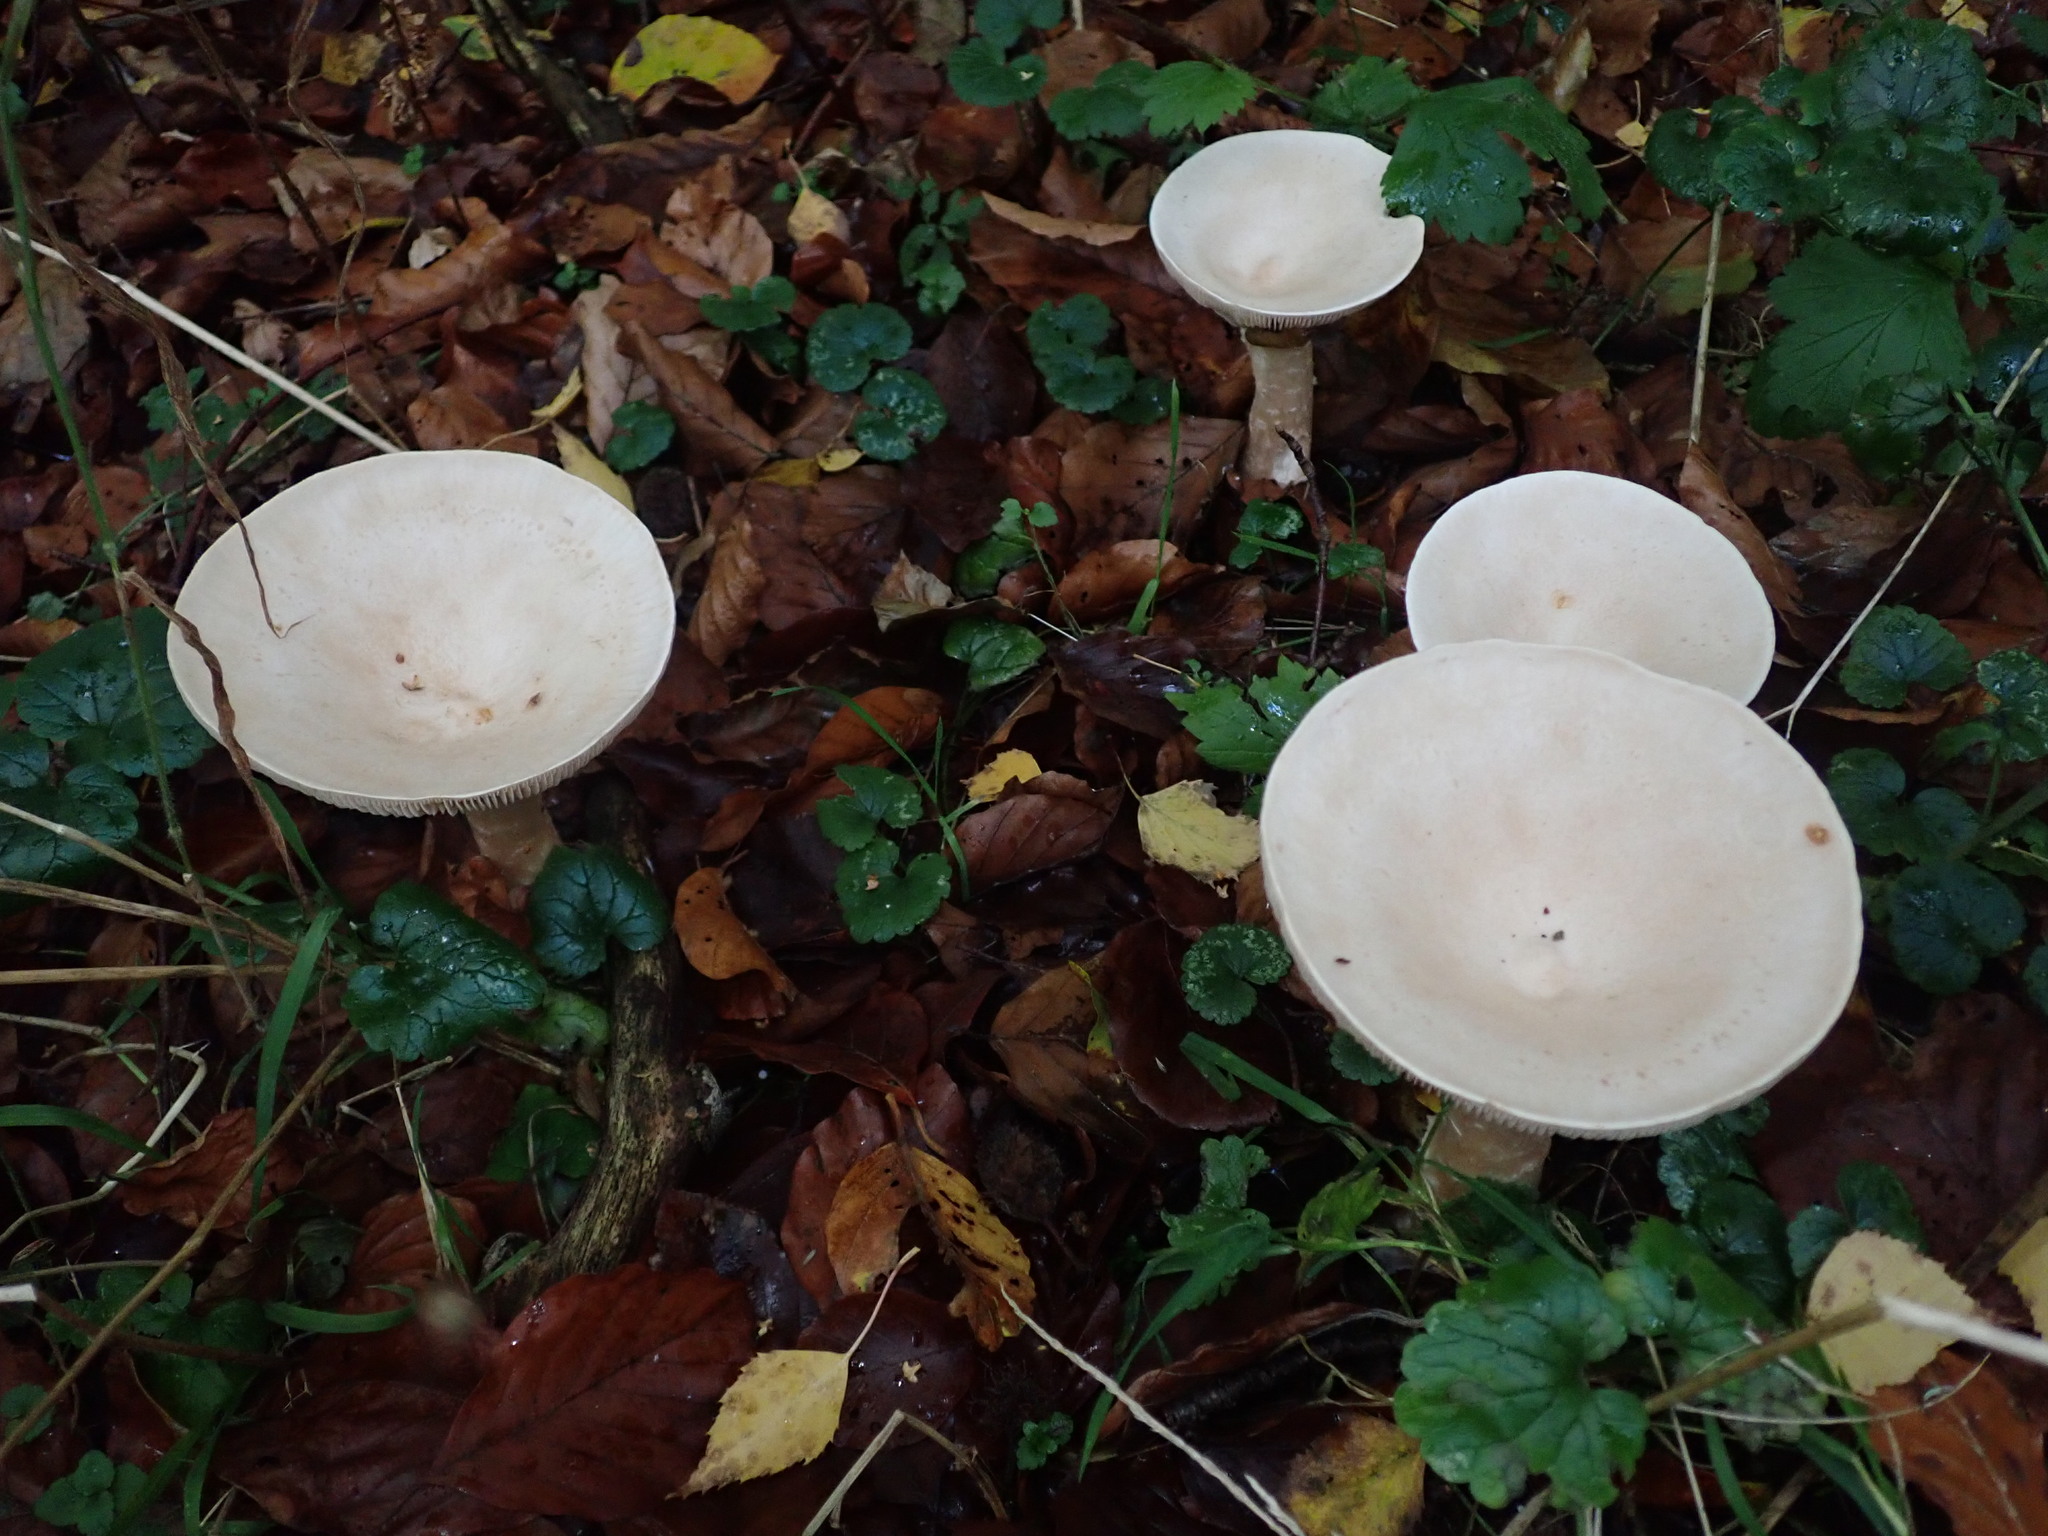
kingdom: Fungi
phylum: Basidiomycota
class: Agaricomycetes
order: Agaricales
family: Tricholomataceae
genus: Infundibulicybe
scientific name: Infundibulicybe geotropa
